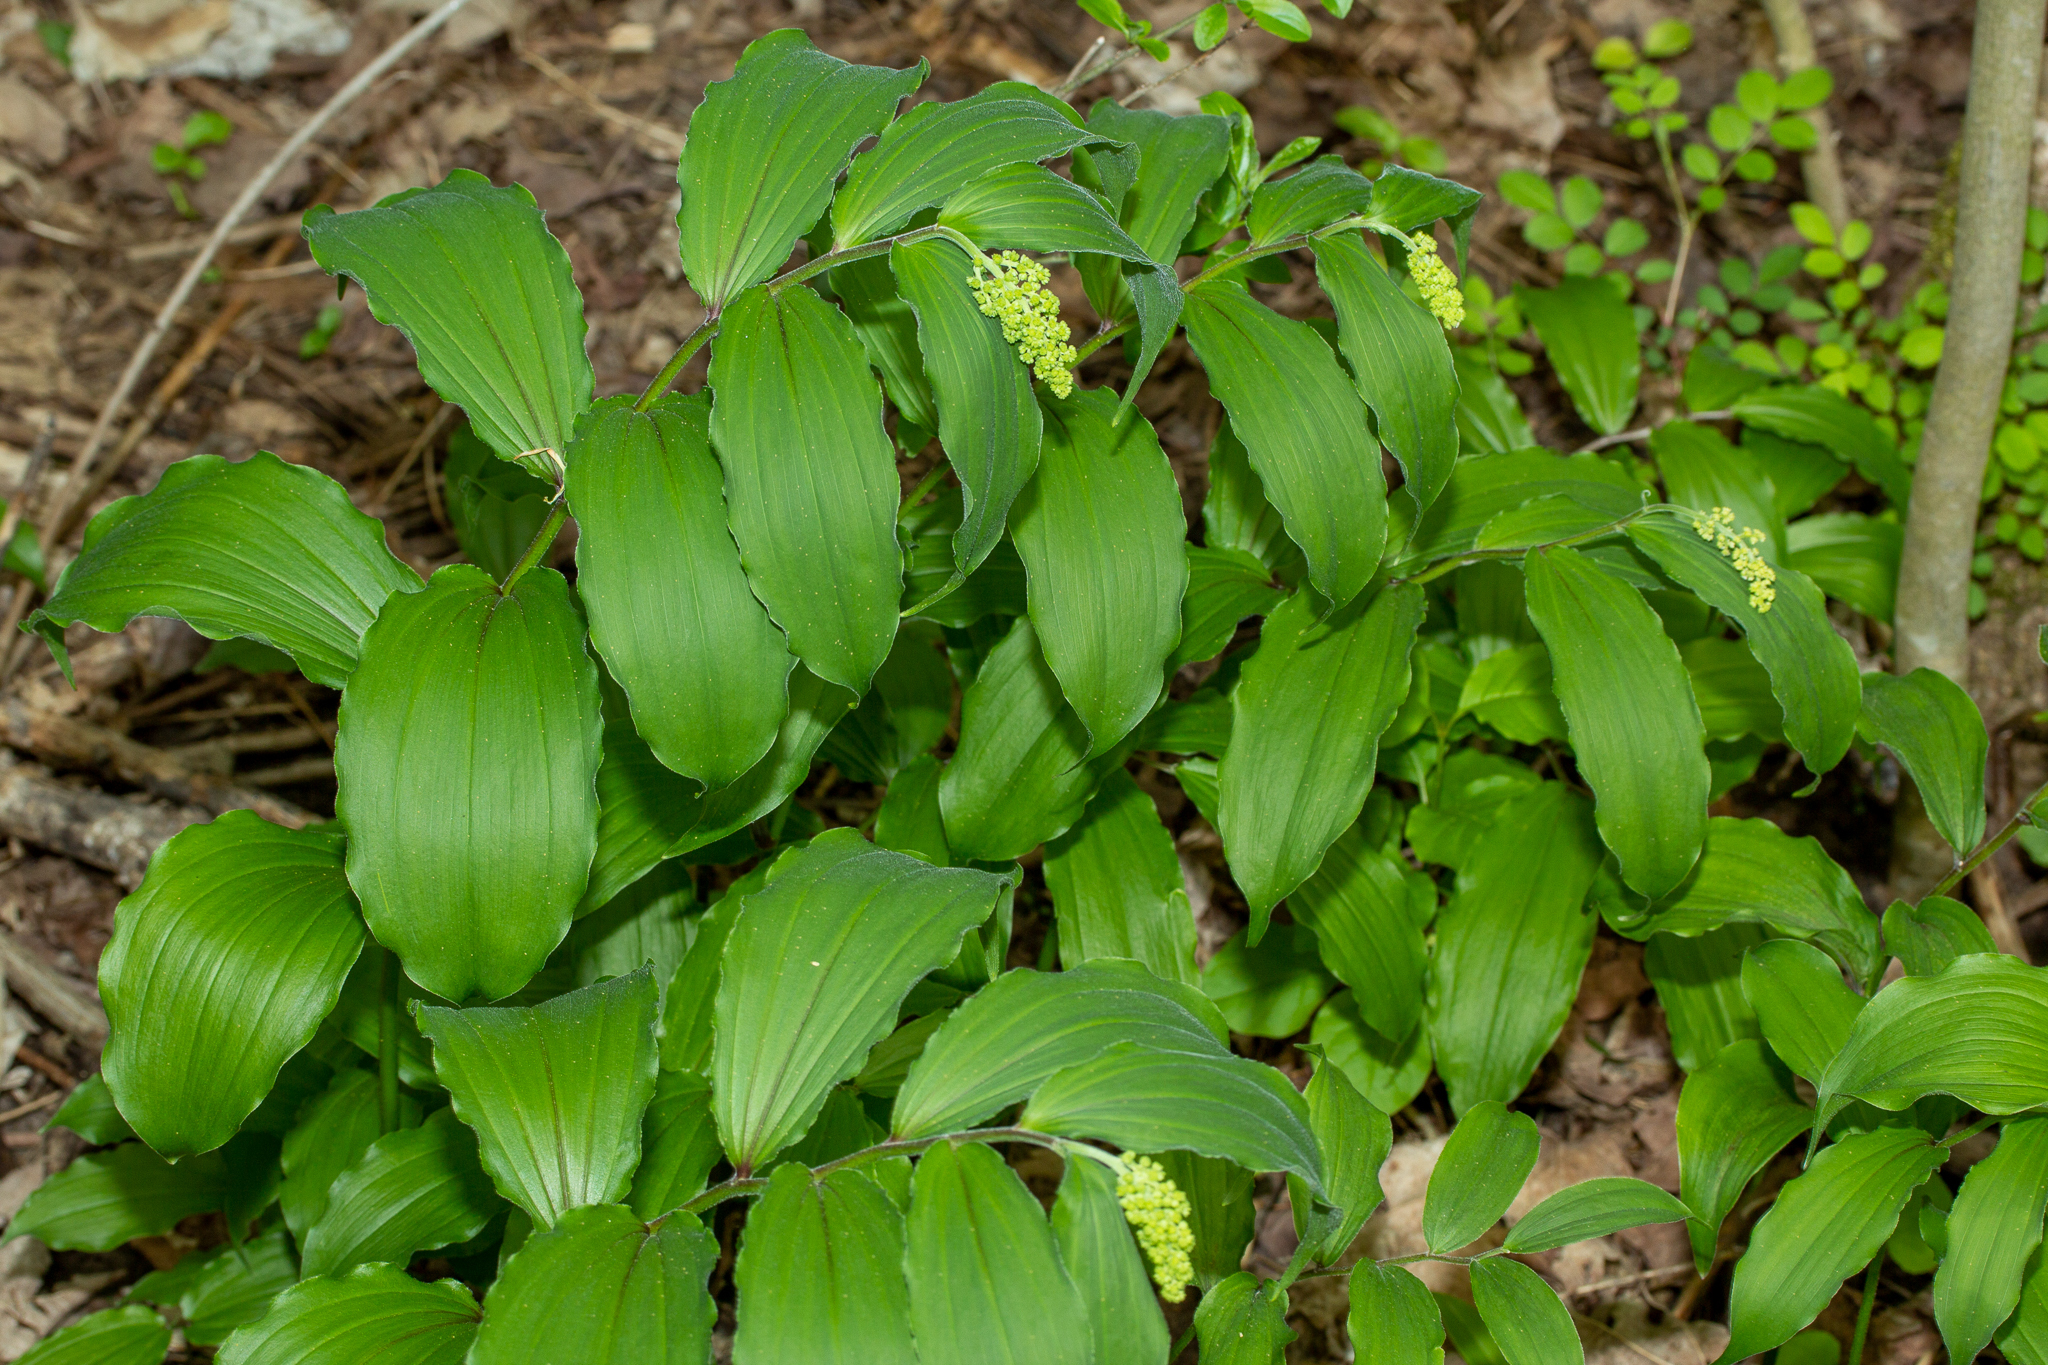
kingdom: Plantae
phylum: Tracheophyta
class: Liliopsida
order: Asparagales
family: Asparagaceae
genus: Maianthemum
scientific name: Maianthemum racemosum
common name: False spikenard
